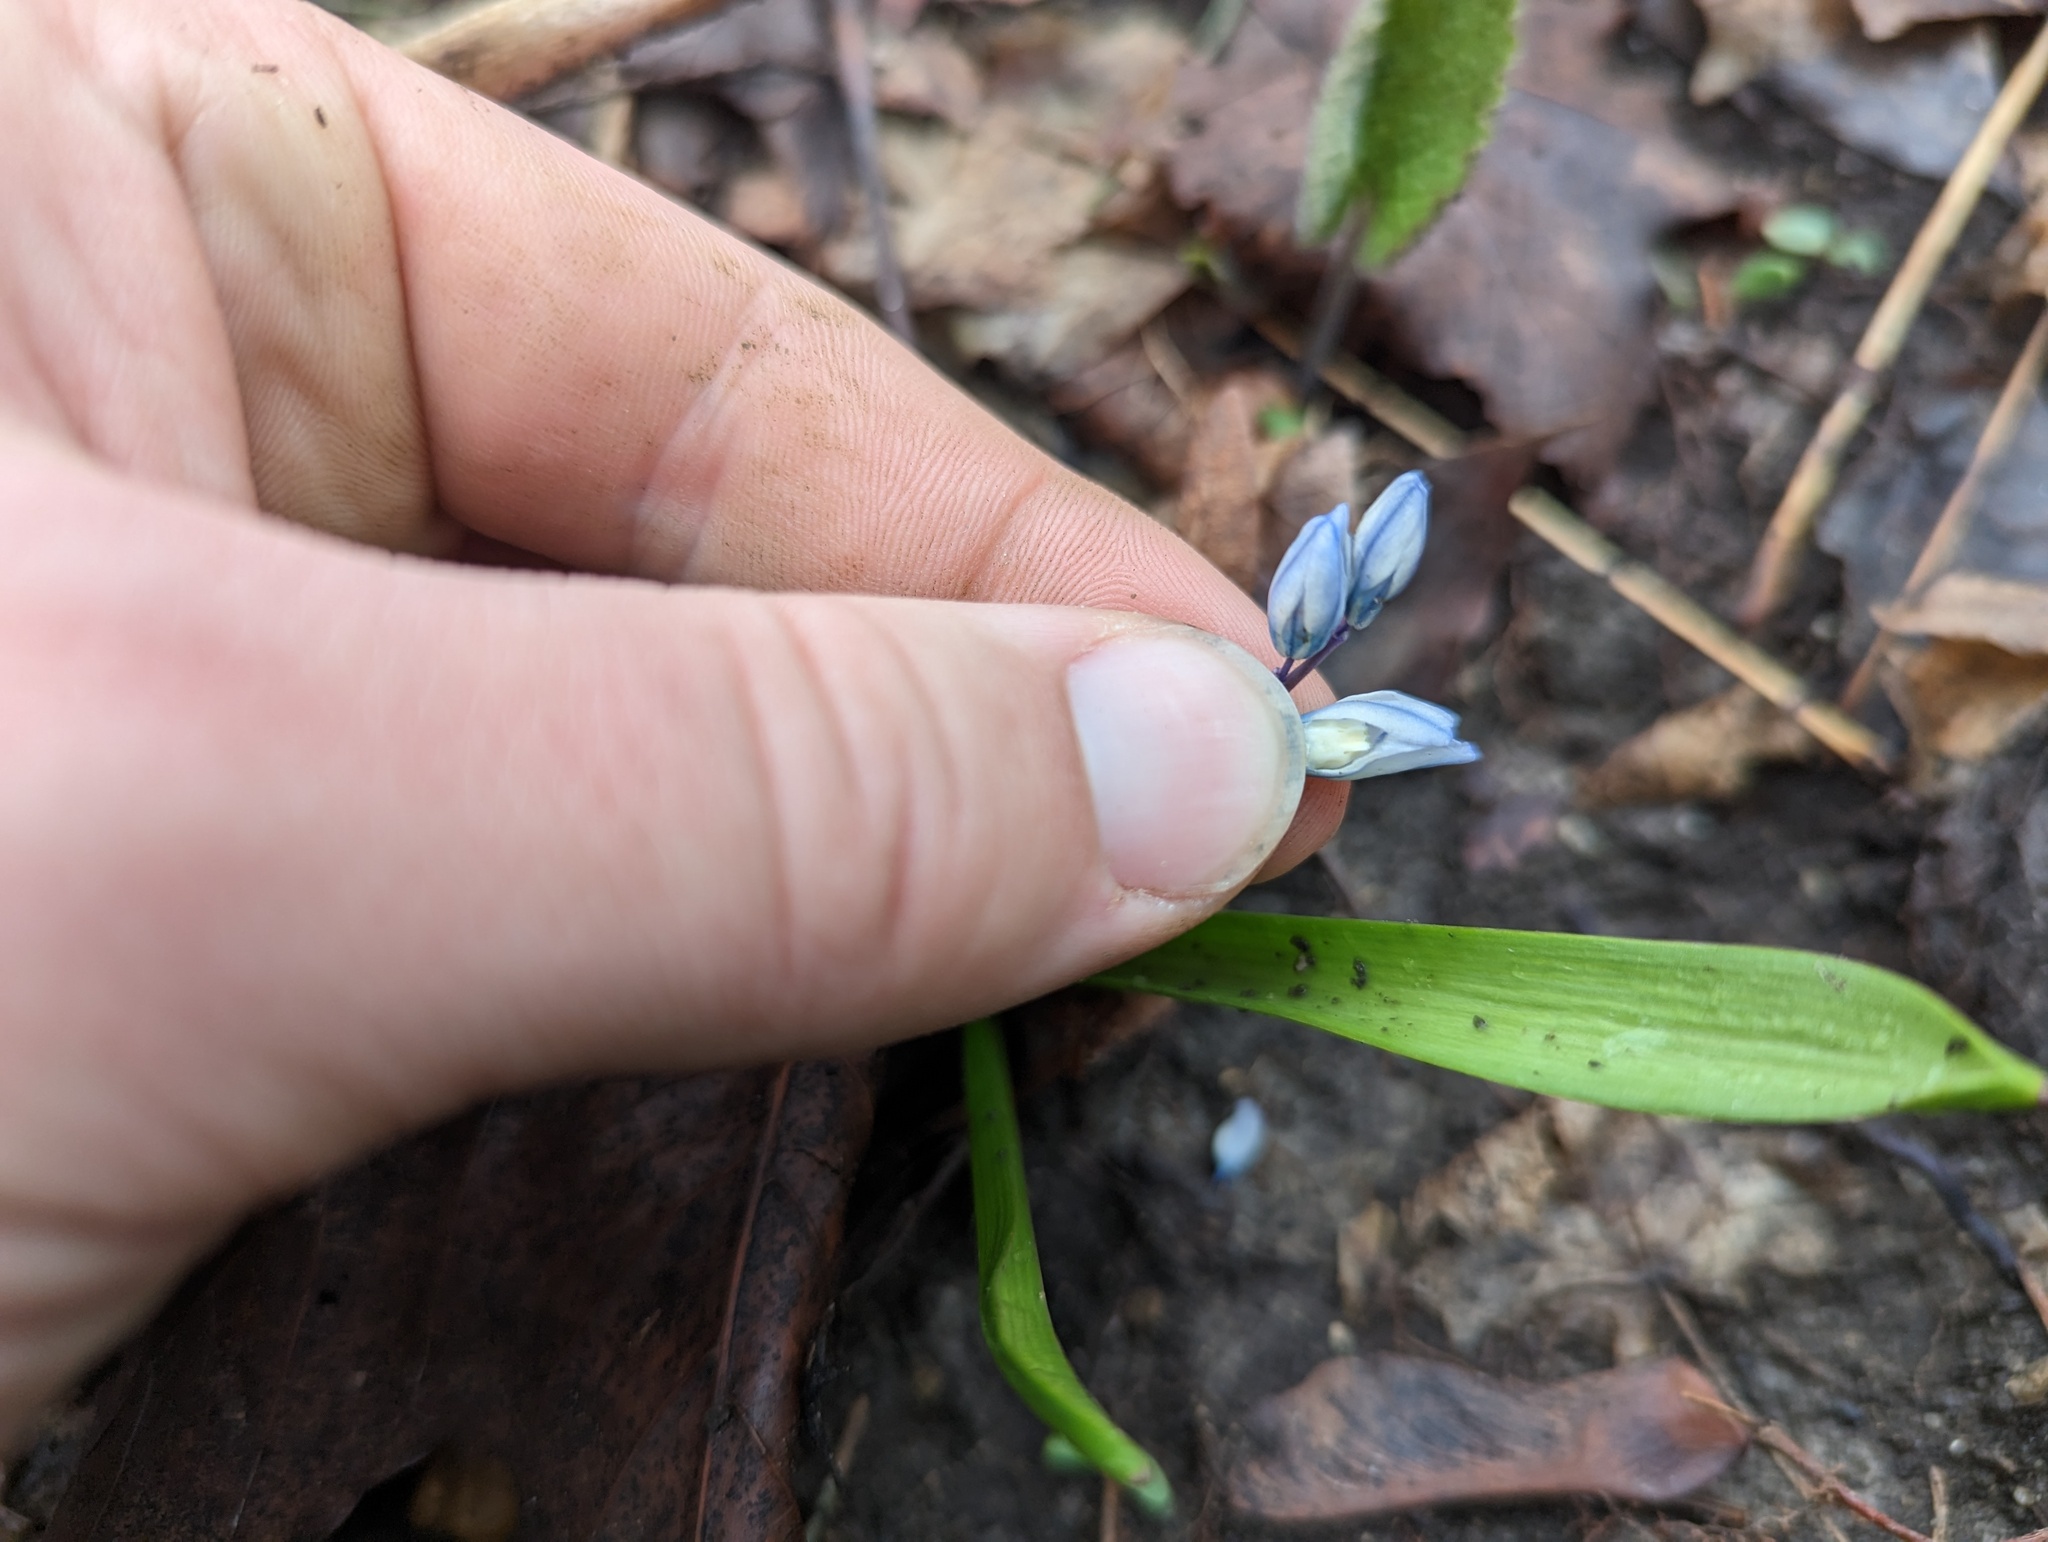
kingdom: Plantae
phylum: Tracheophyta
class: Liliopsida
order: Asparagales
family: Asparagaceae
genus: Puschkinia
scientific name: Puschkinia scilloides
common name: Striped squill
